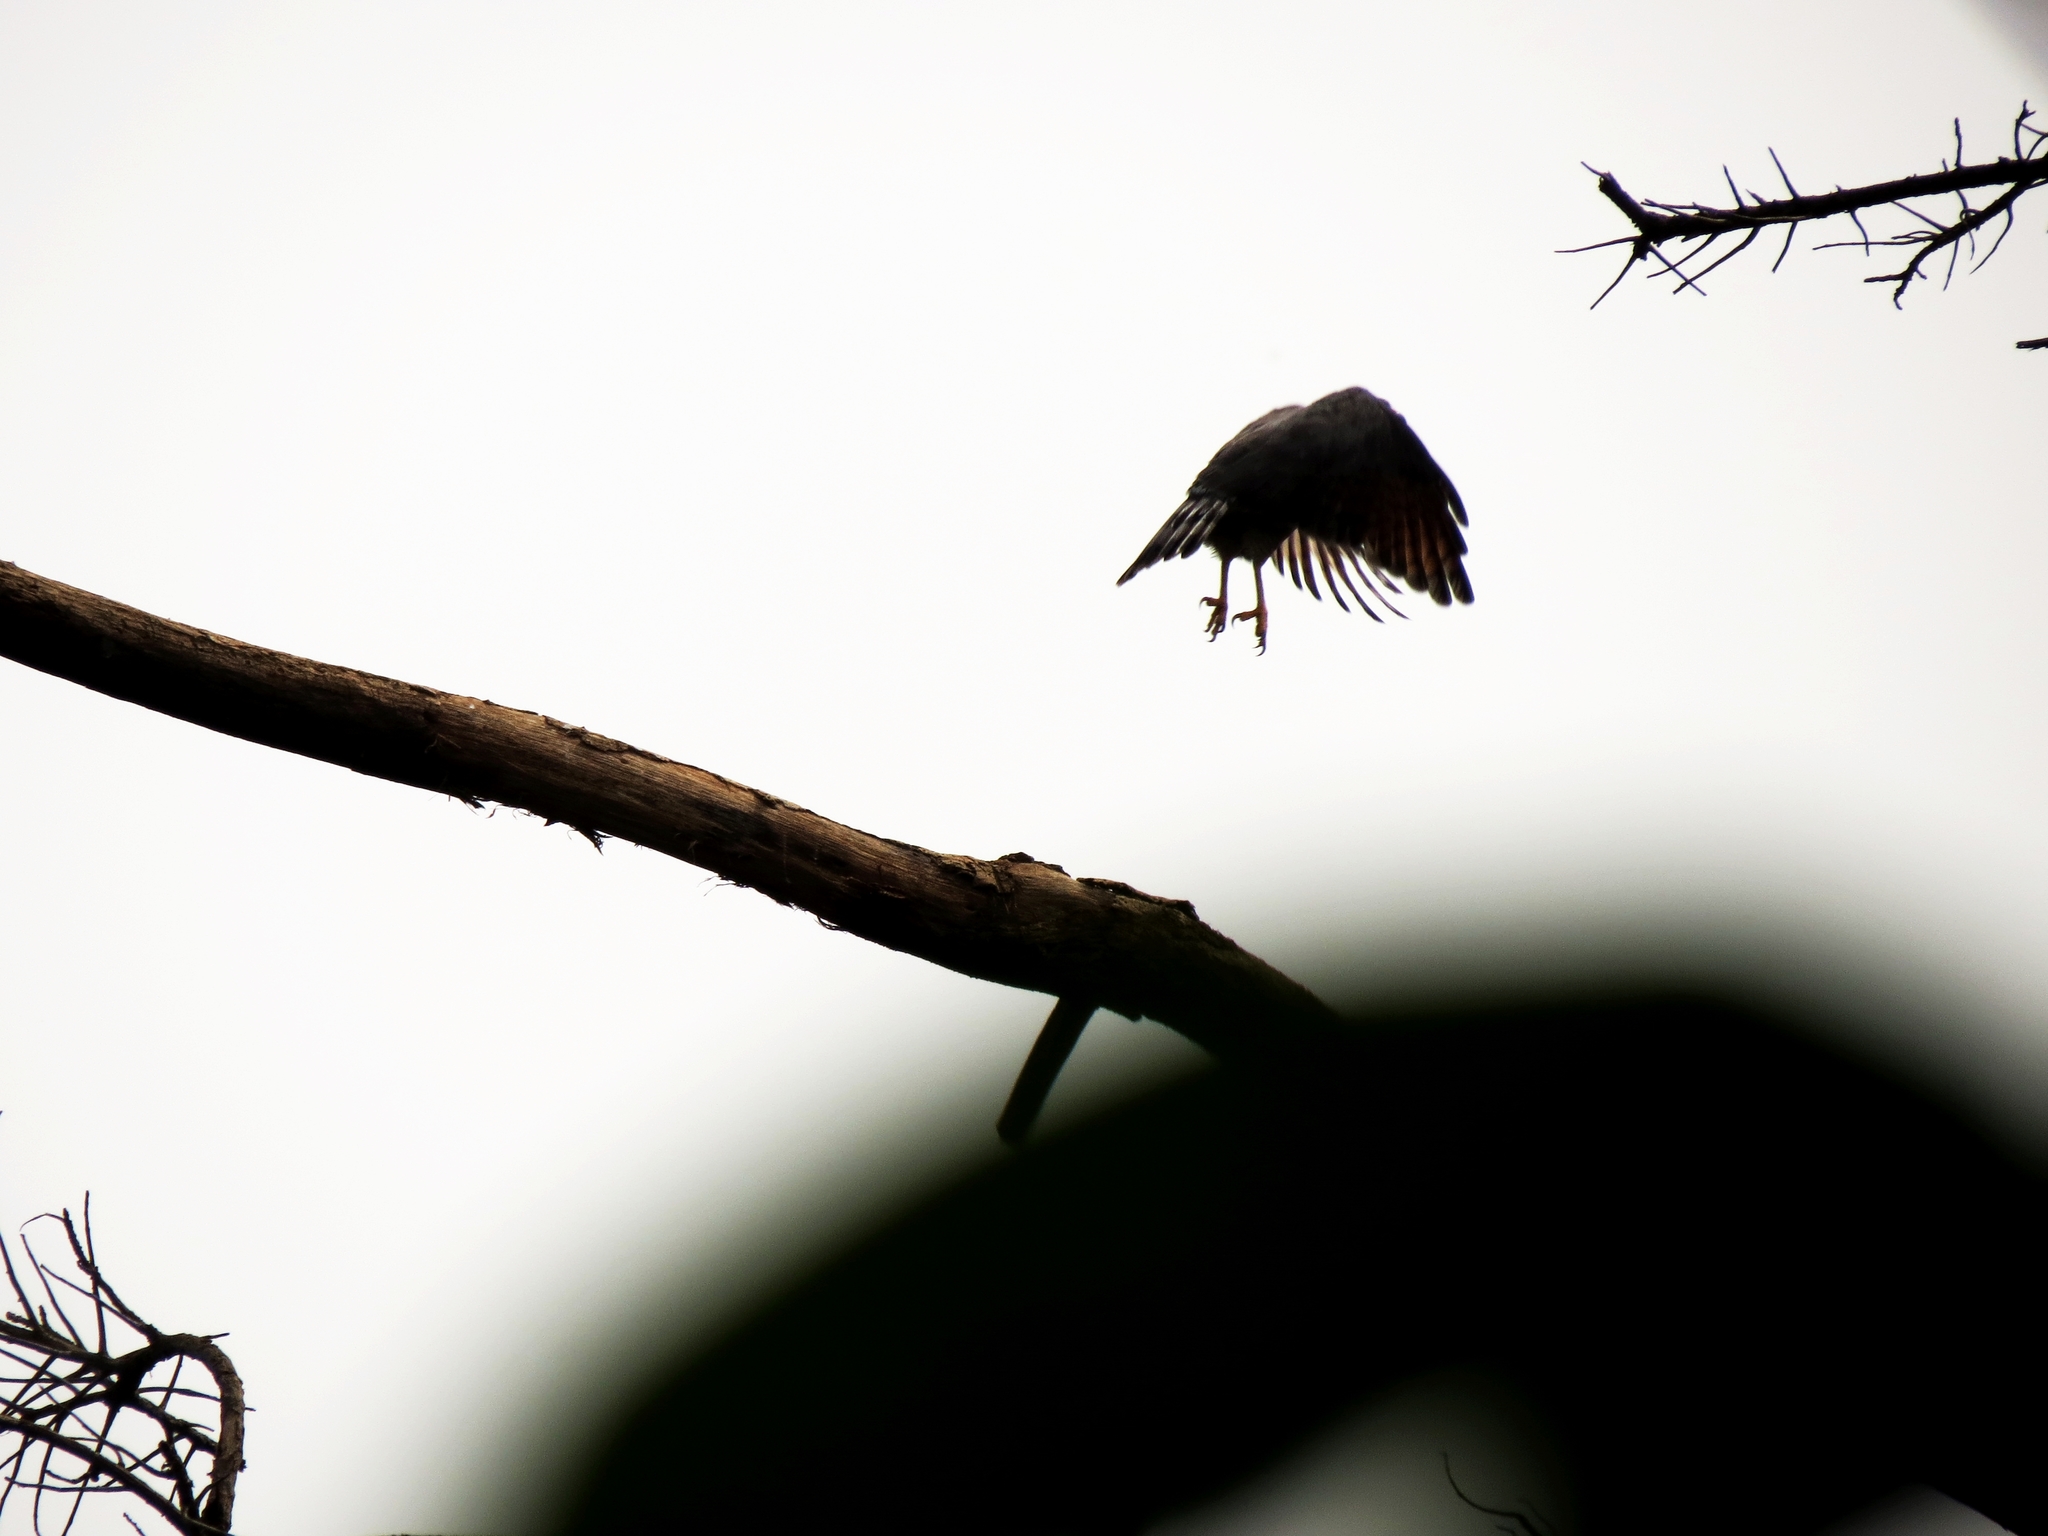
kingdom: Animalia
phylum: Chordata
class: Aves
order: Accipitriformes
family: Accipitridae
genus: Rupornis
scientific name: Rupornis magnirostris
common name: Roadside hawk
